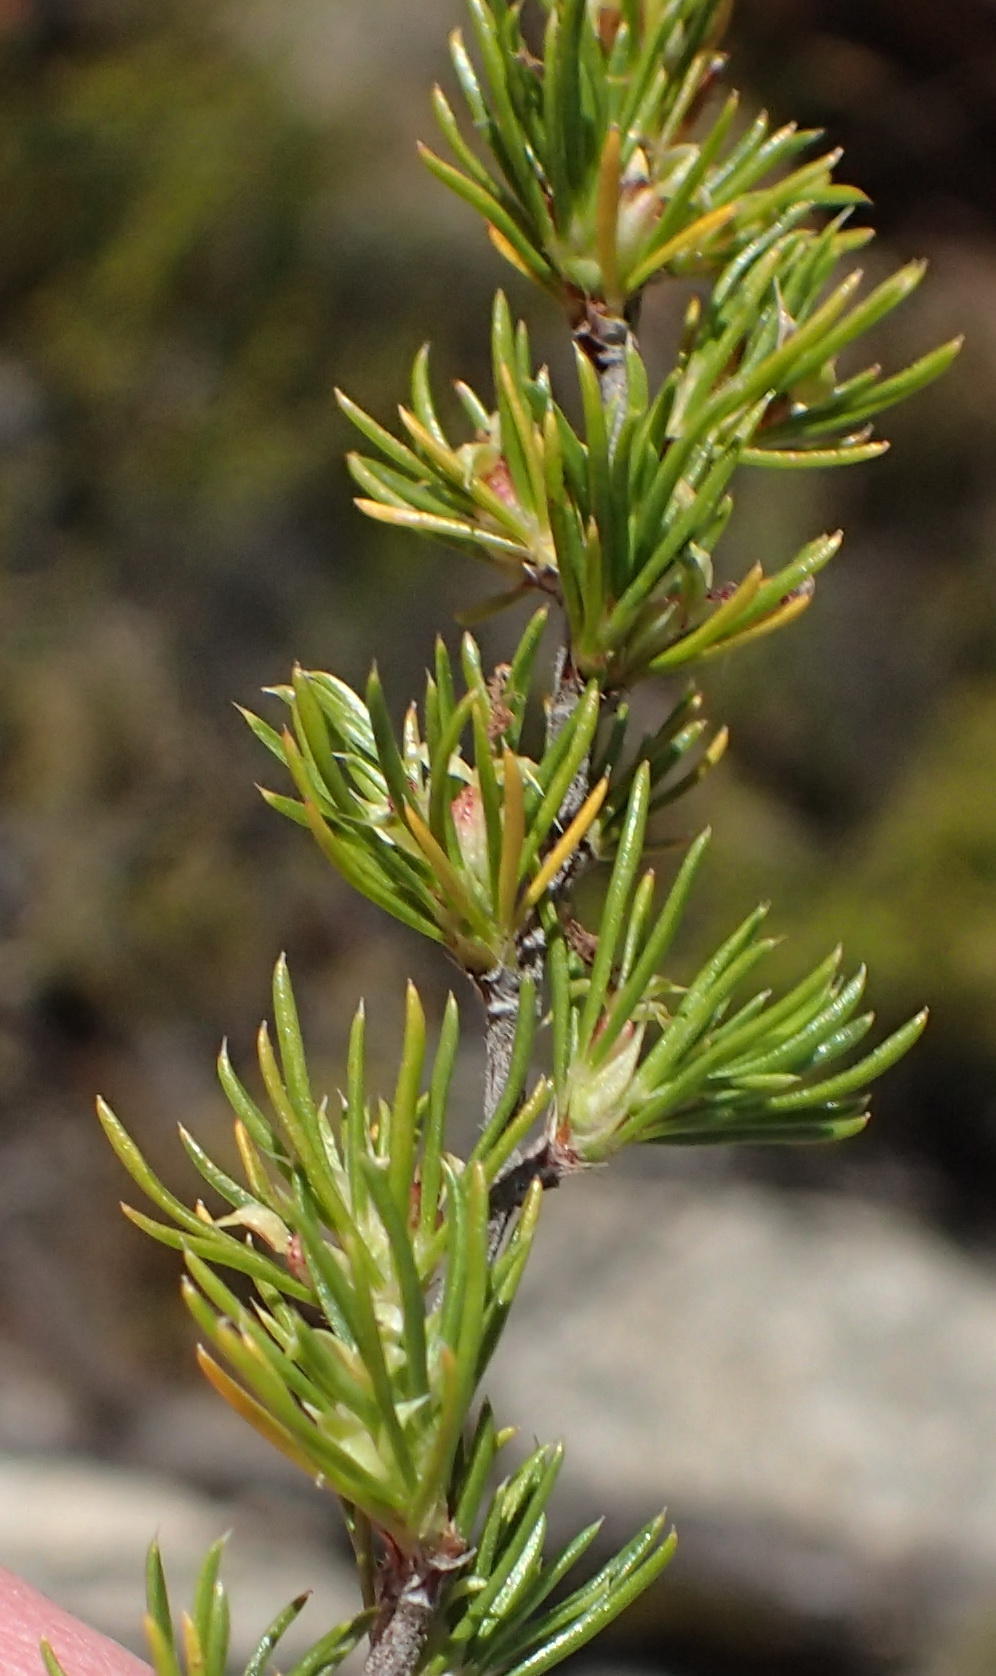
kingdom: Plantae
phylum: Tracheophyta
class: Magnoliopsida
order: Rosales
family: Rosaceae
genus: Cliffortia
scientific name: Cliffortia tuberculata
